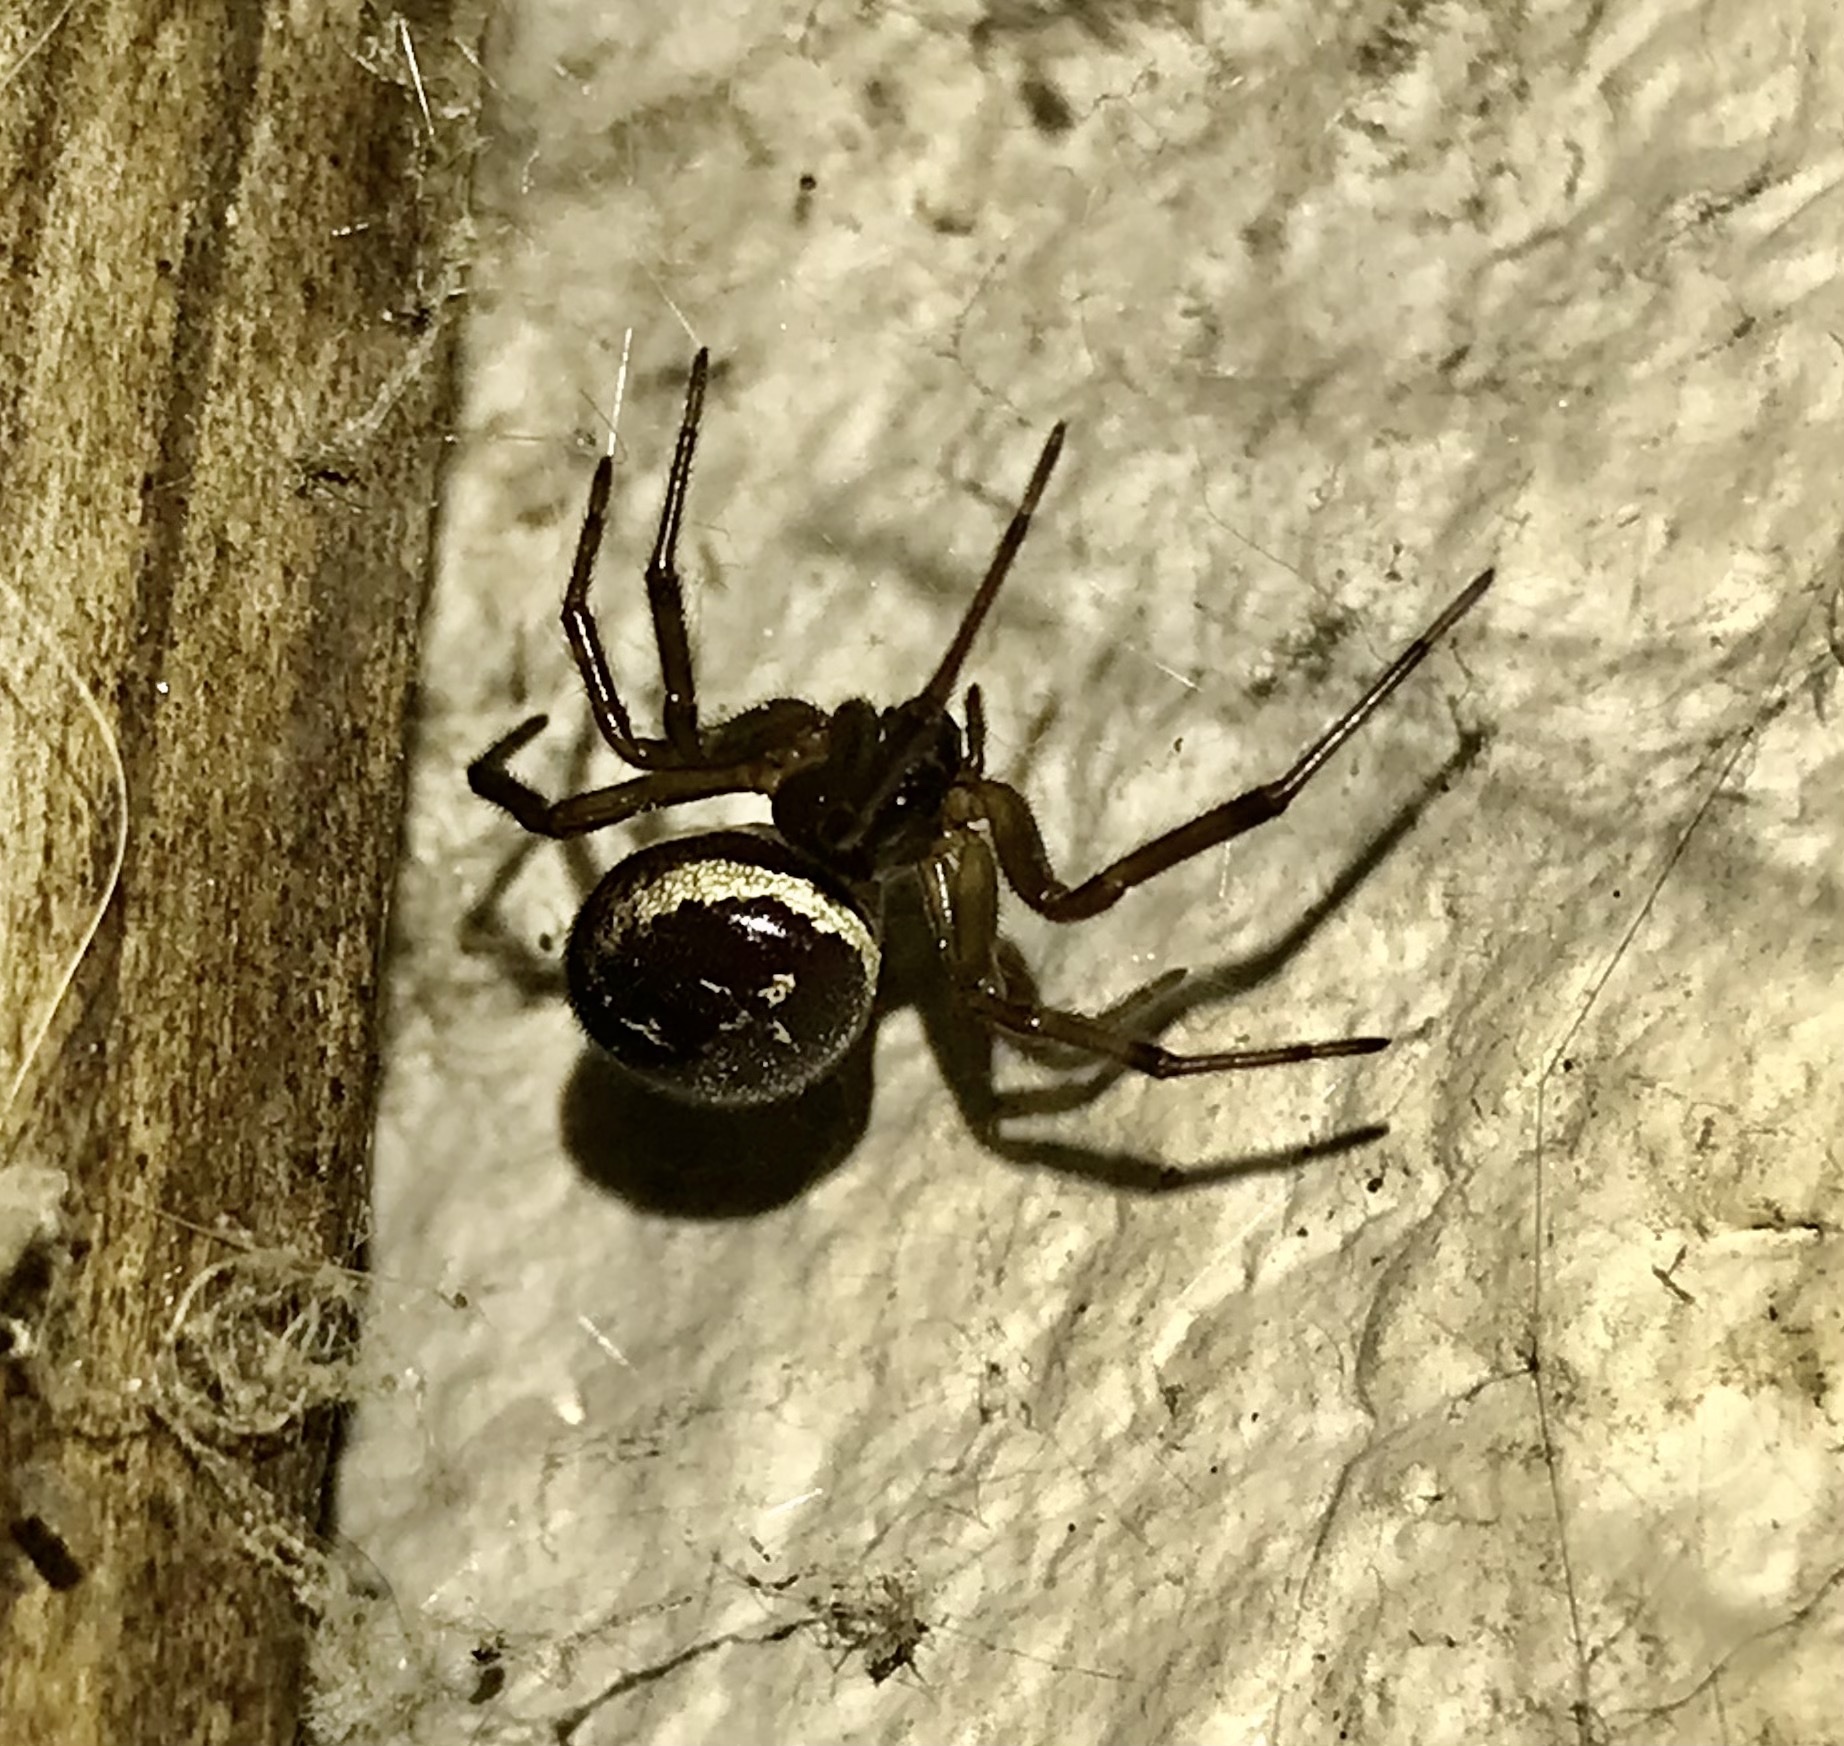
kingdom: Animalia
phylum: Arthropoda
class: Arachnida
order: Araneae
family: Theridiidae
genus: Steatoda
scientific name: Steatoda nobilis
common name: Cobweb weaver
